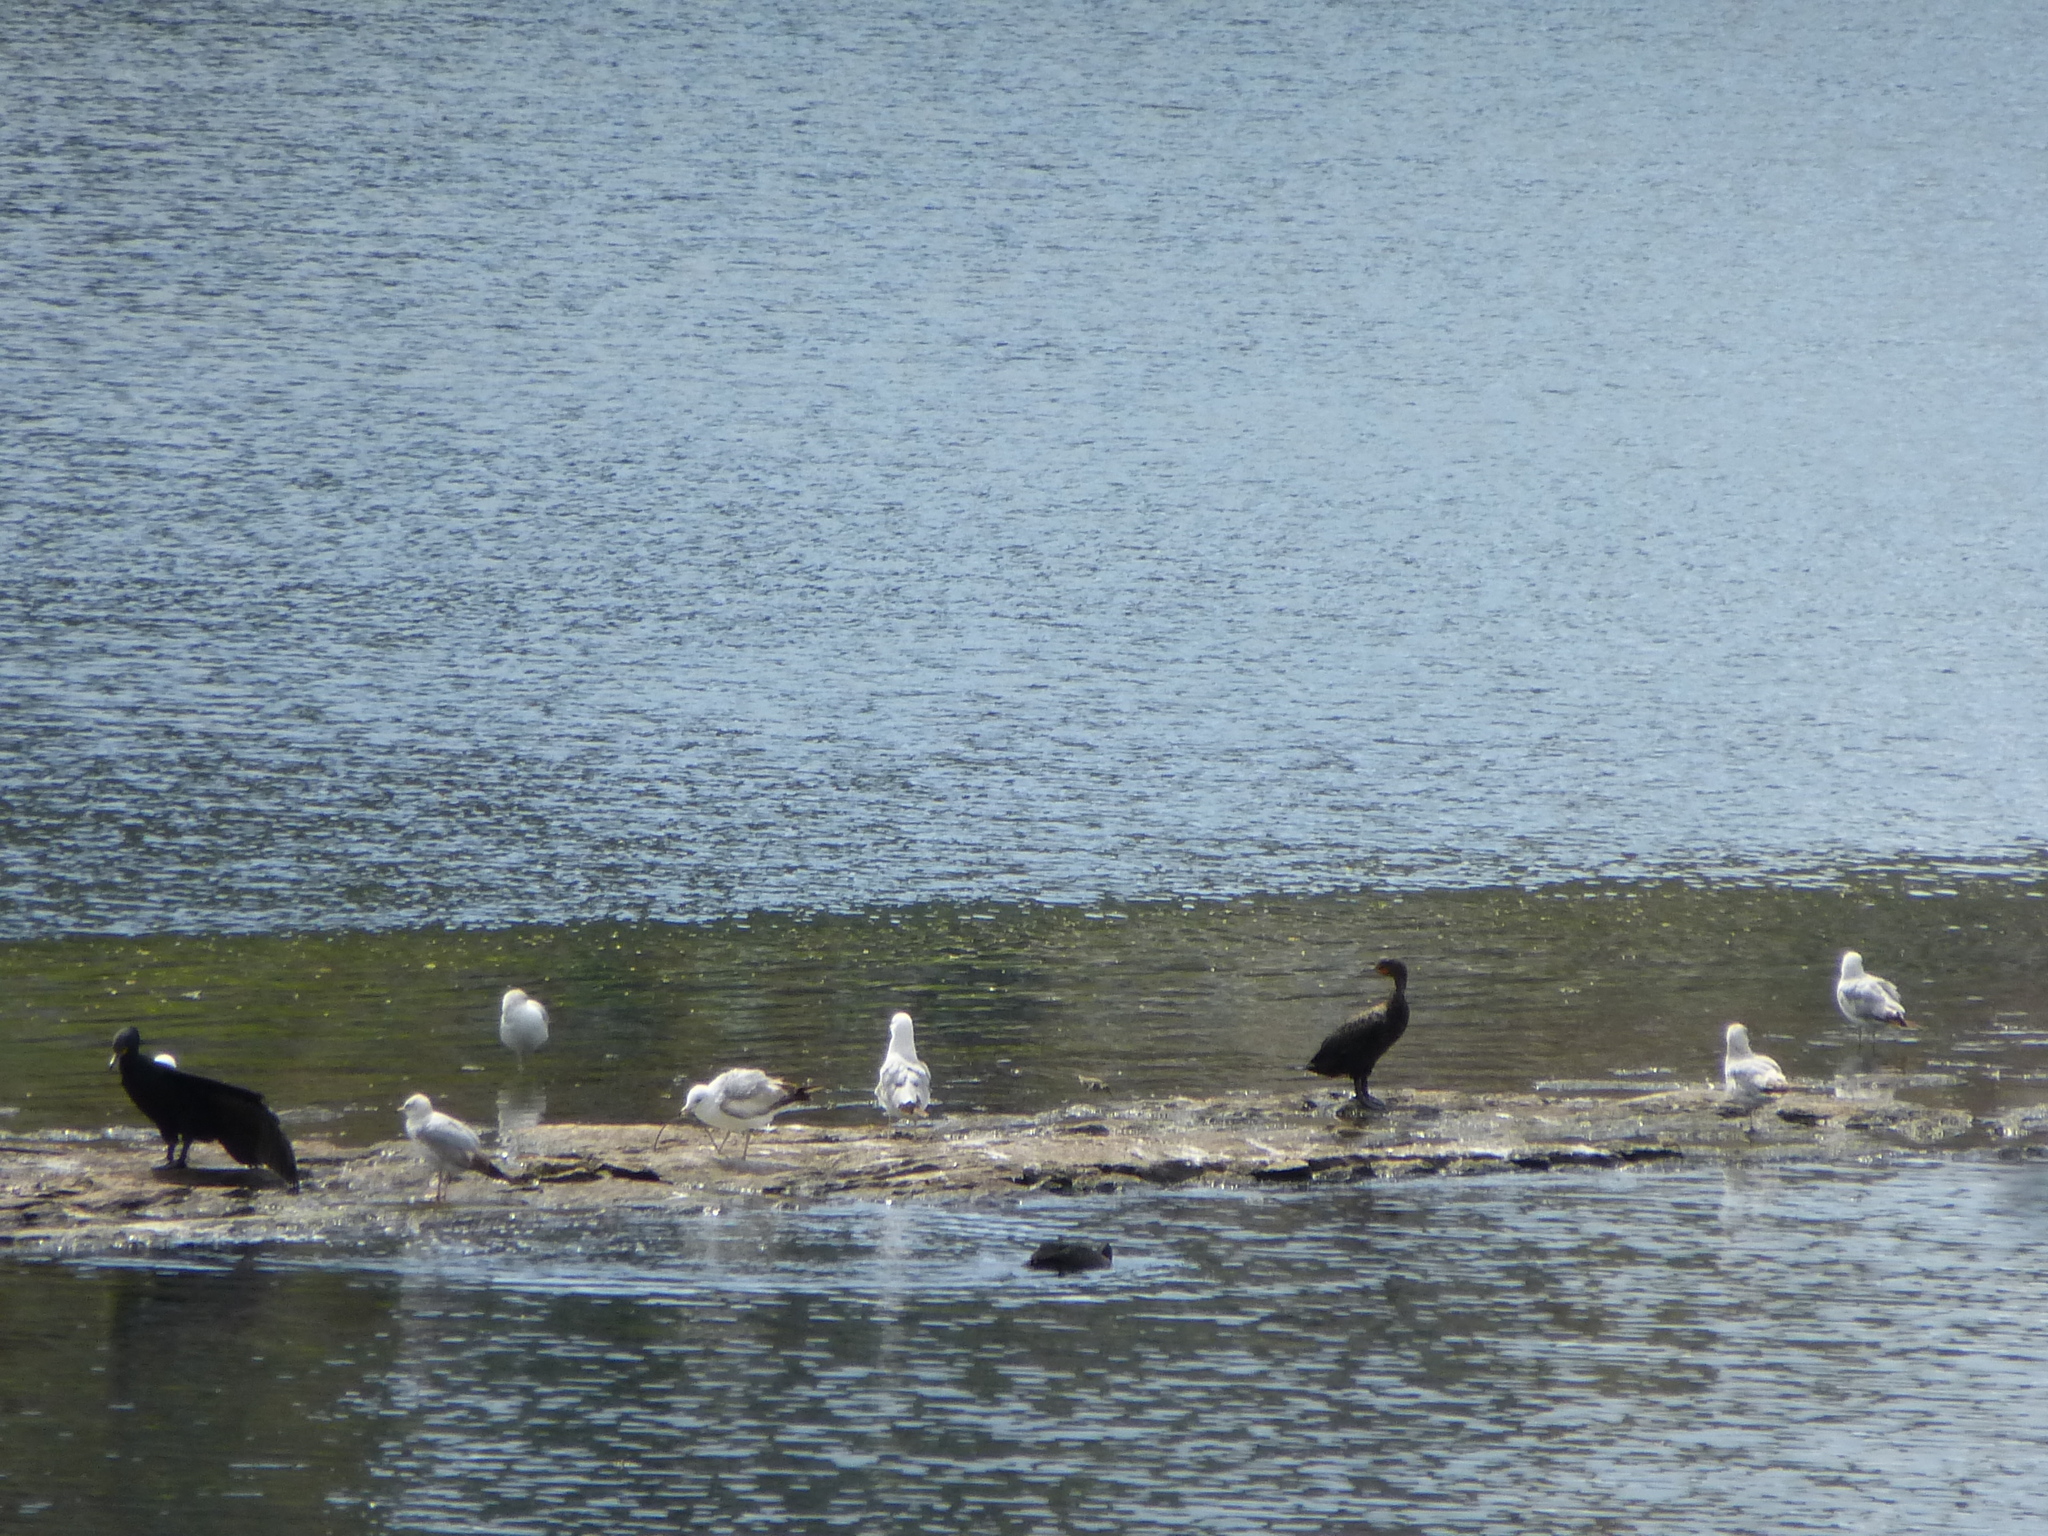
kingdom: Animalia
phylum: Chordata
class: Aves
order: Suliformes
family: Phalacrocoracidae
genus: Phalacrocorax
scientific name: Phalacrocorax auritus
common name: Double-crested cormorant
